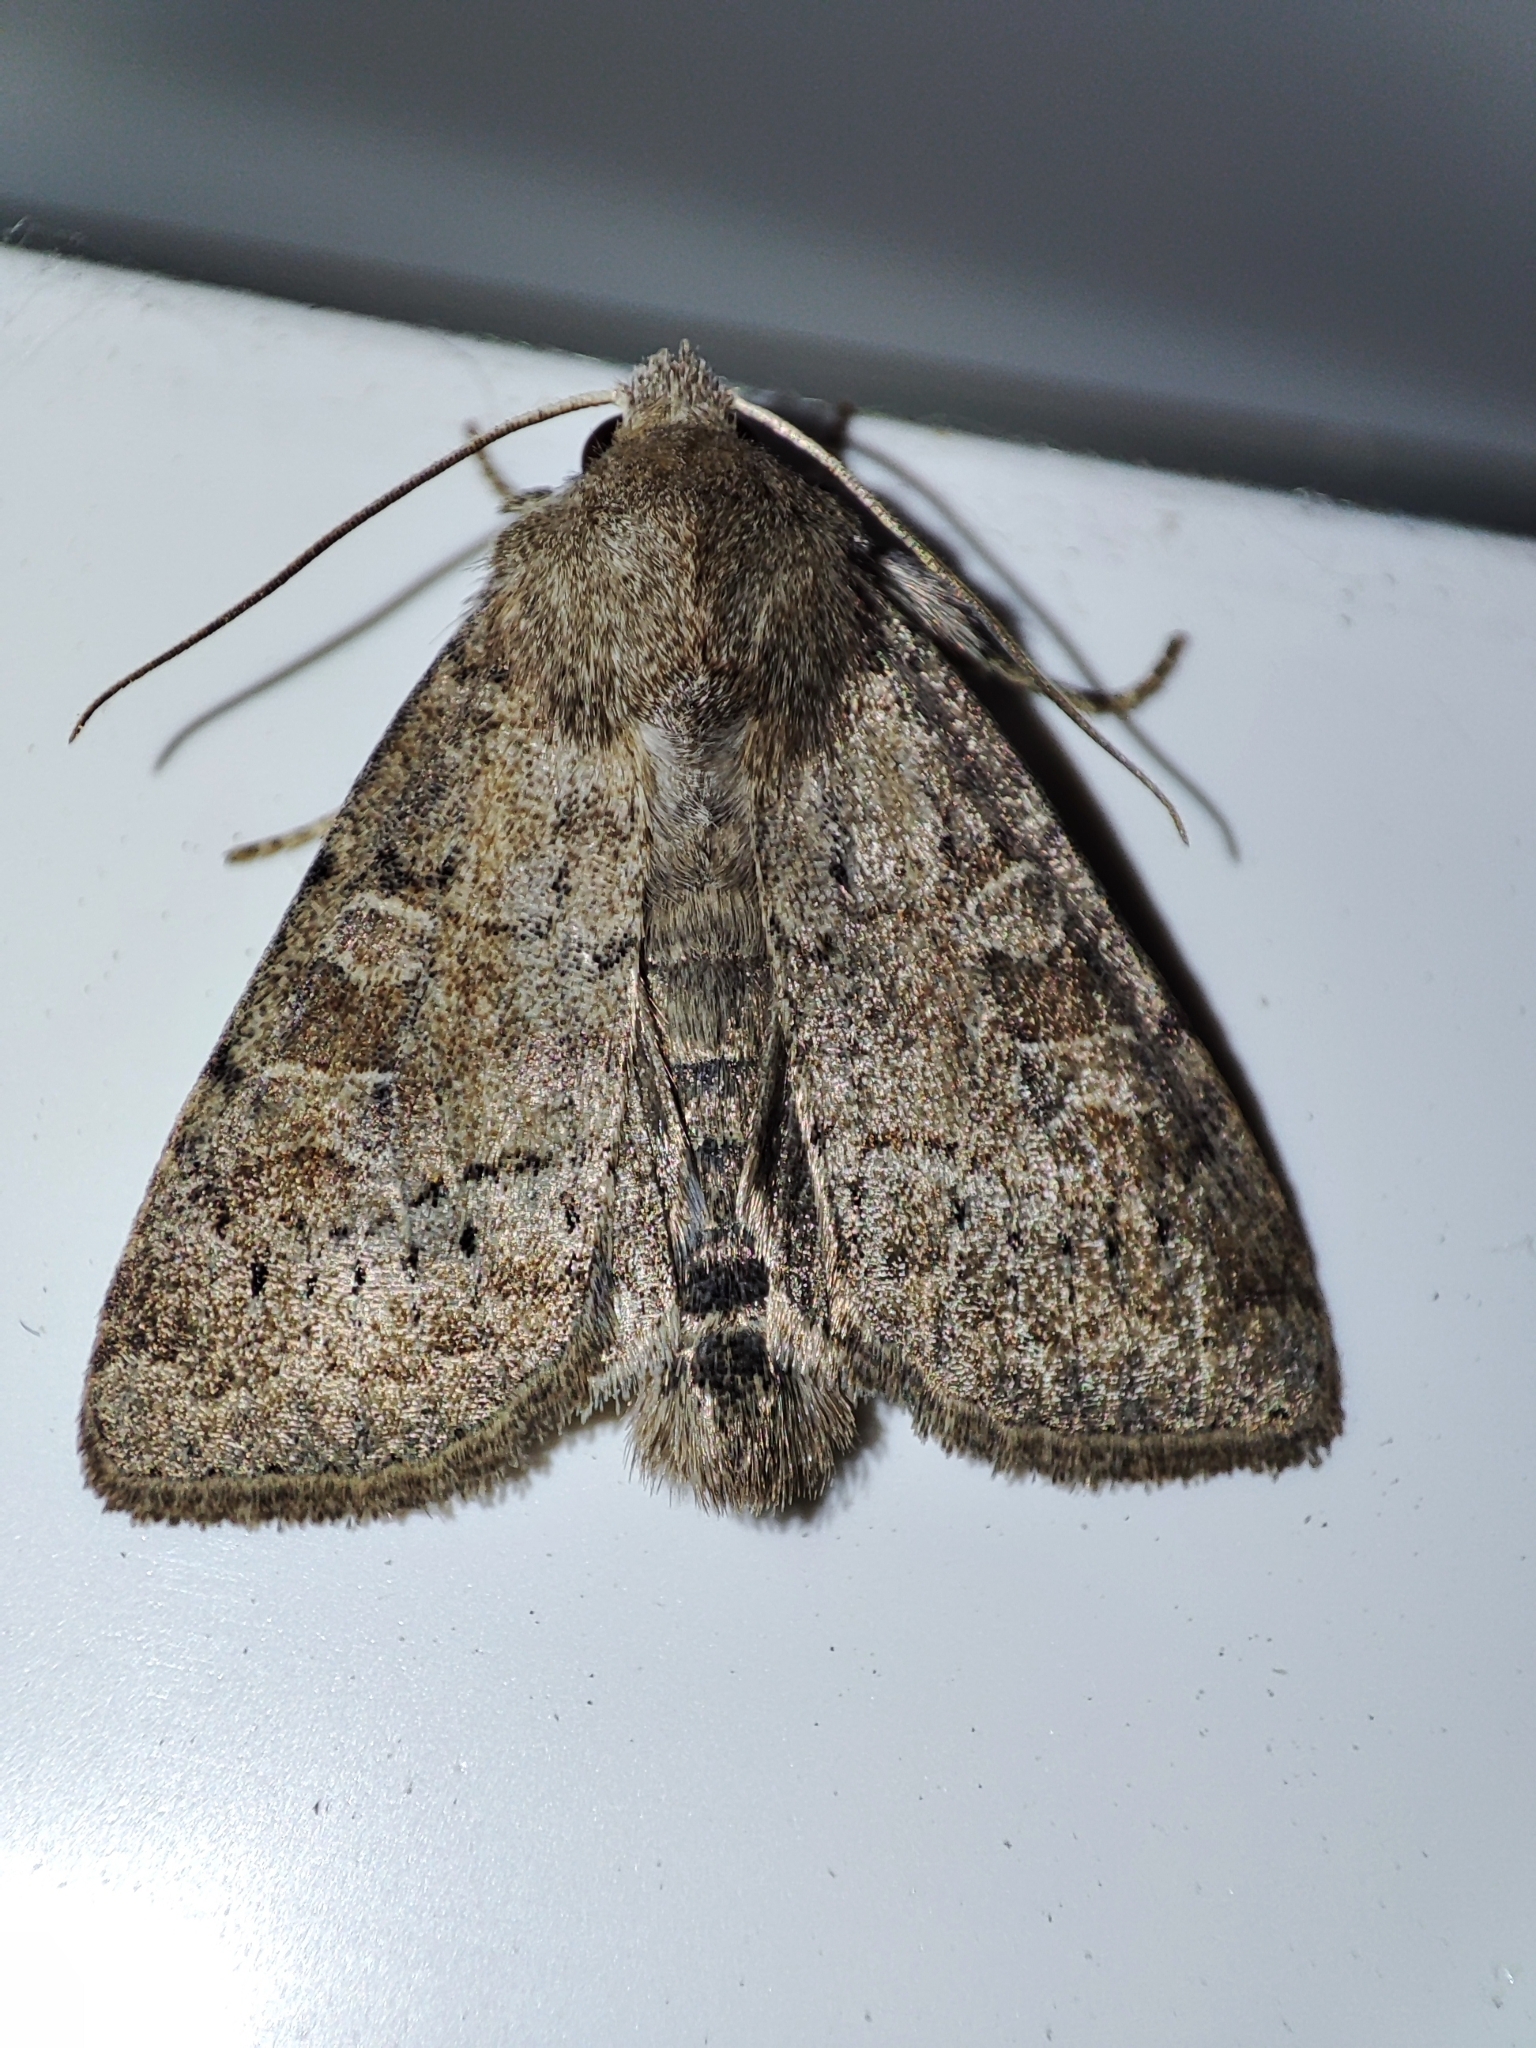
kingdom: Animalia
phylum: Arthropoda
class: Insecta
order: Lepidoptera
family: Noctuidae
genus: Parastichtis
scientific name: Parastichtis suspecta
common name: Suspected
